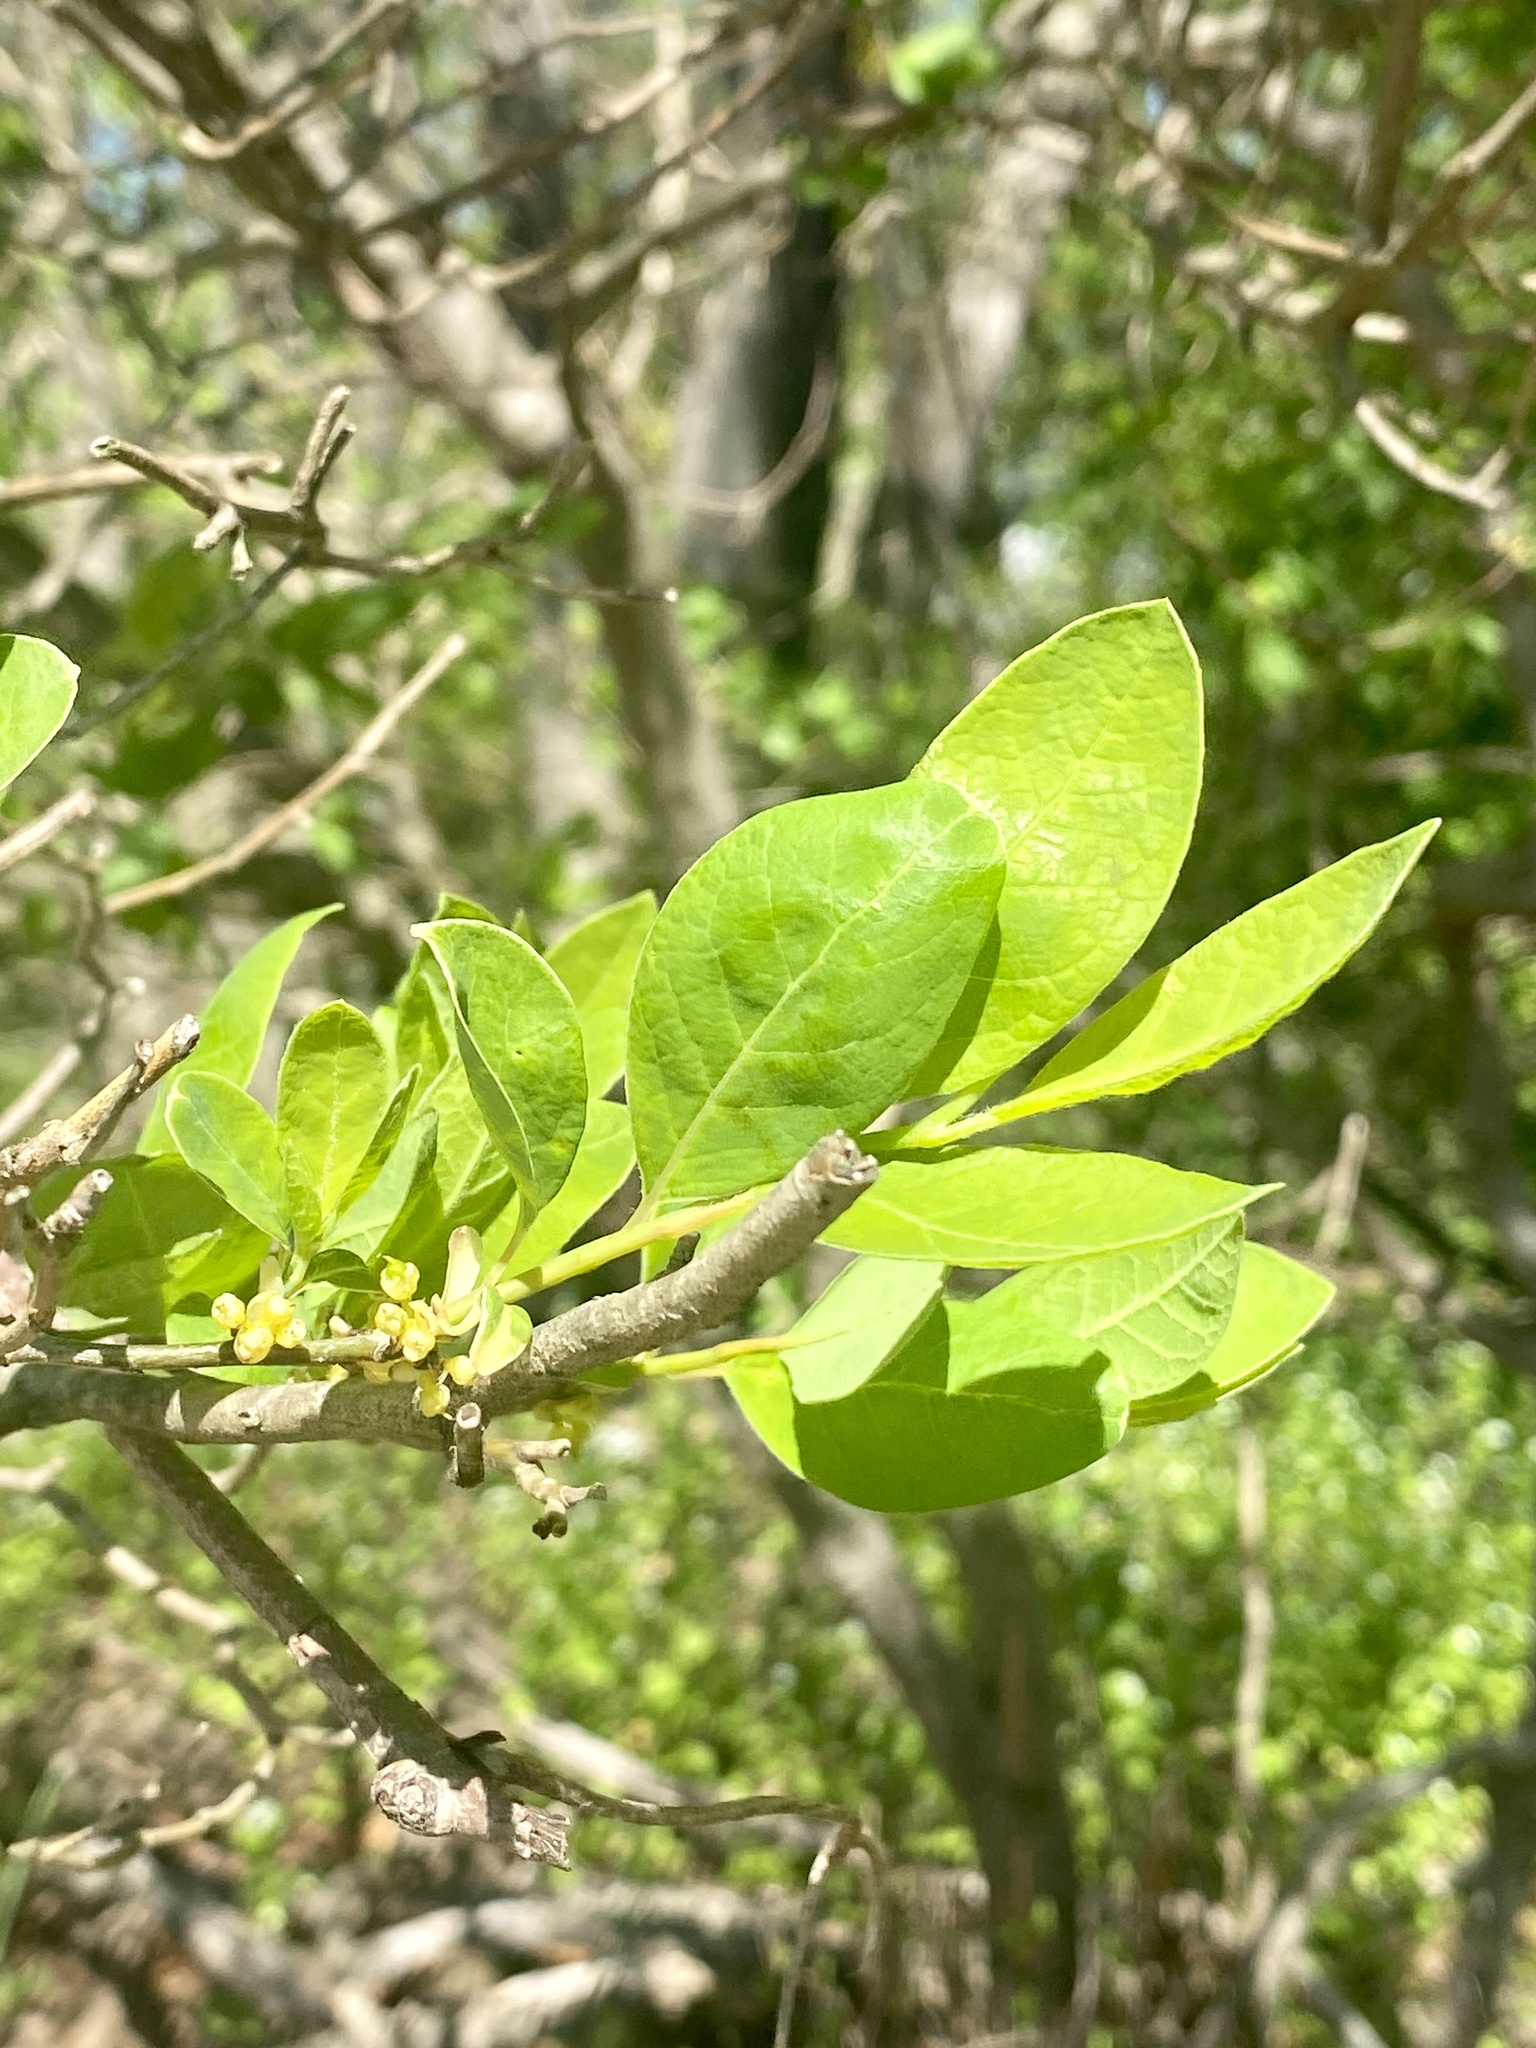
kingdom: Plantae
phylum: Tracheophyta
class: Magnoliopsida
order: Laurales
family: Lauraceae
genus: Lindera
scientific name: Lindera benzoin
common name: Spicebush
